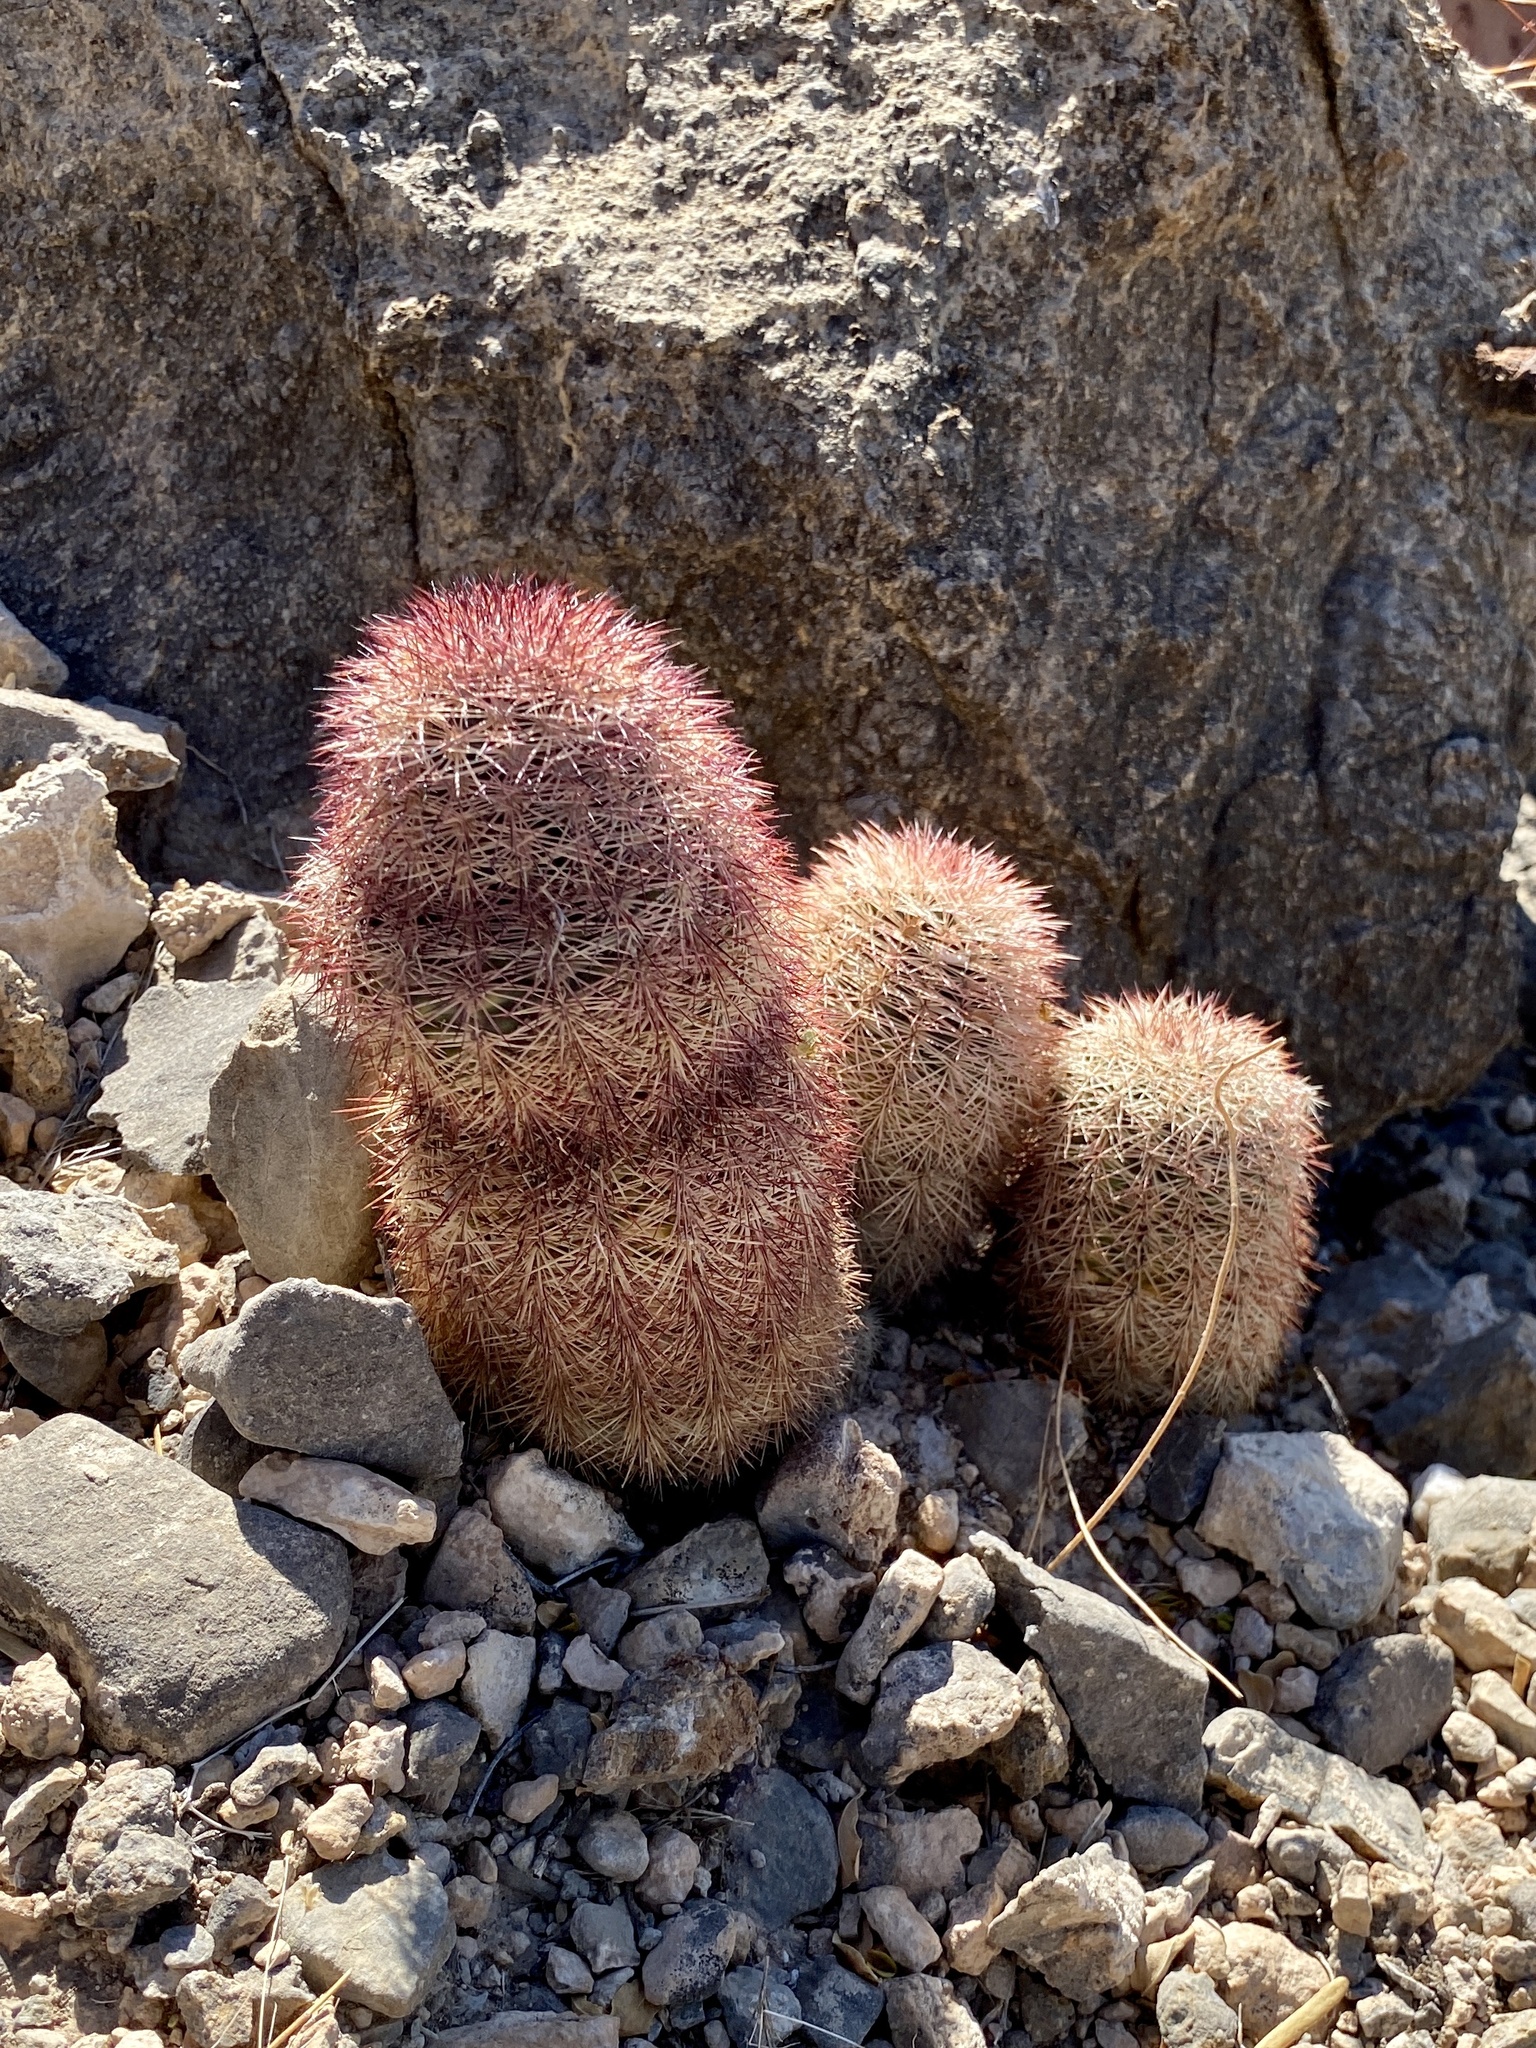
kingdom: Plantae
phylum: Tracheophyta
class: Magnoliopsida
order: Caryophyllales
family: Cactaceae
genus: Echinocereus
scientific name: Echinocereus dasyacanthus
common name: Spiny hedgehog cactus
